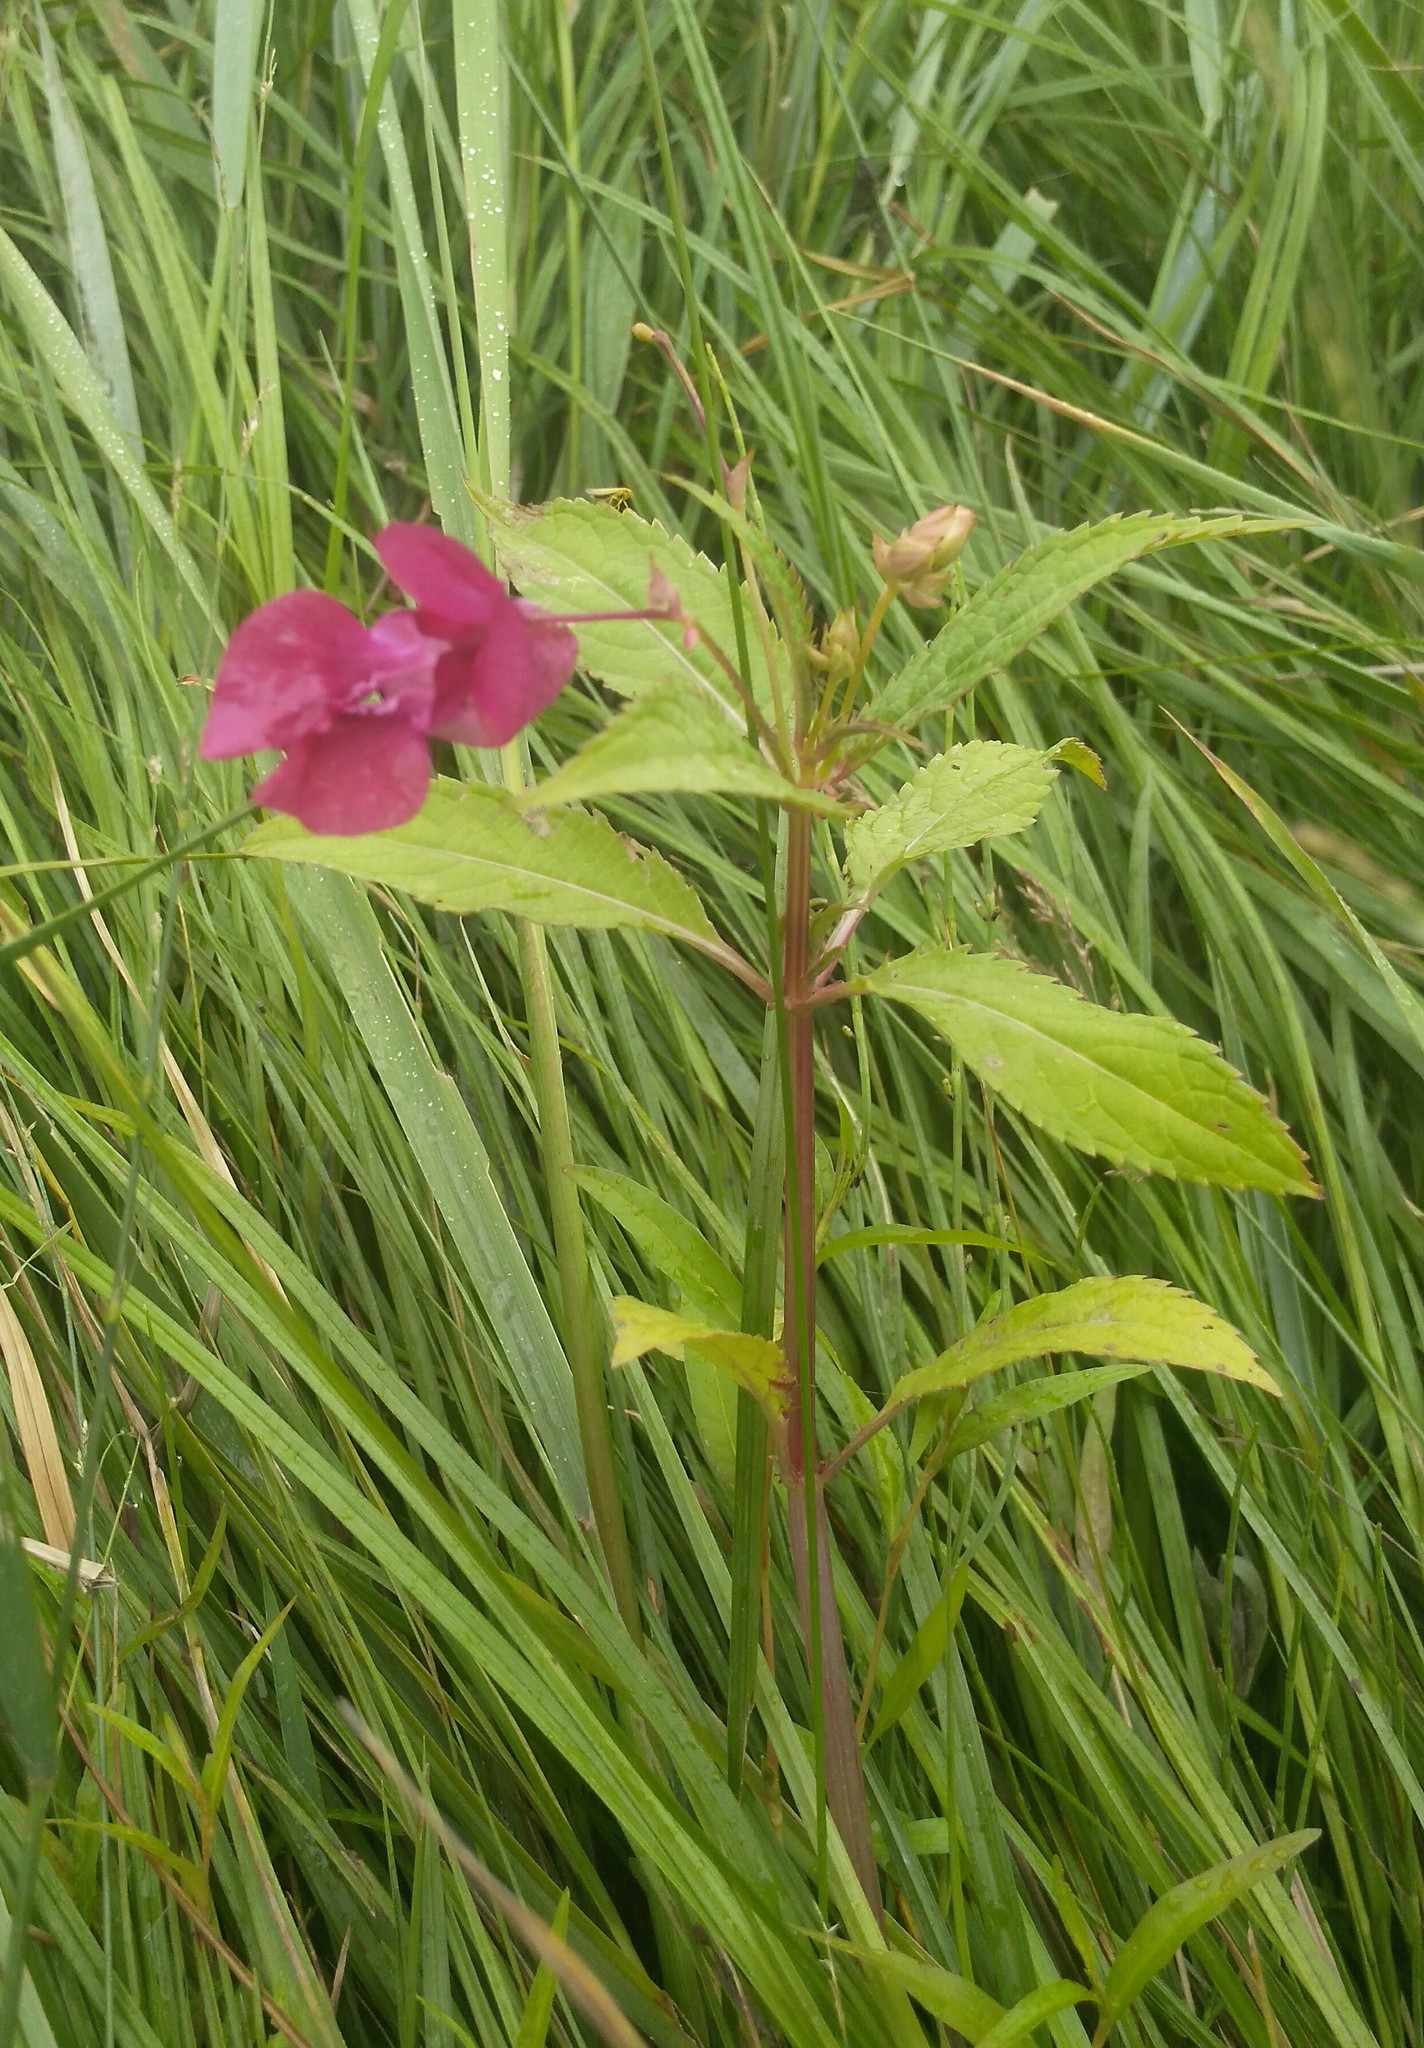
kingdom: Plantae
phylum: Tracheophyta
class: Magnoliopsida
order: Ericales
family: Balsaminaceae
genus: Impatiens
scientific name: Impatiens glandulifera
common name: Himalayan balsam
